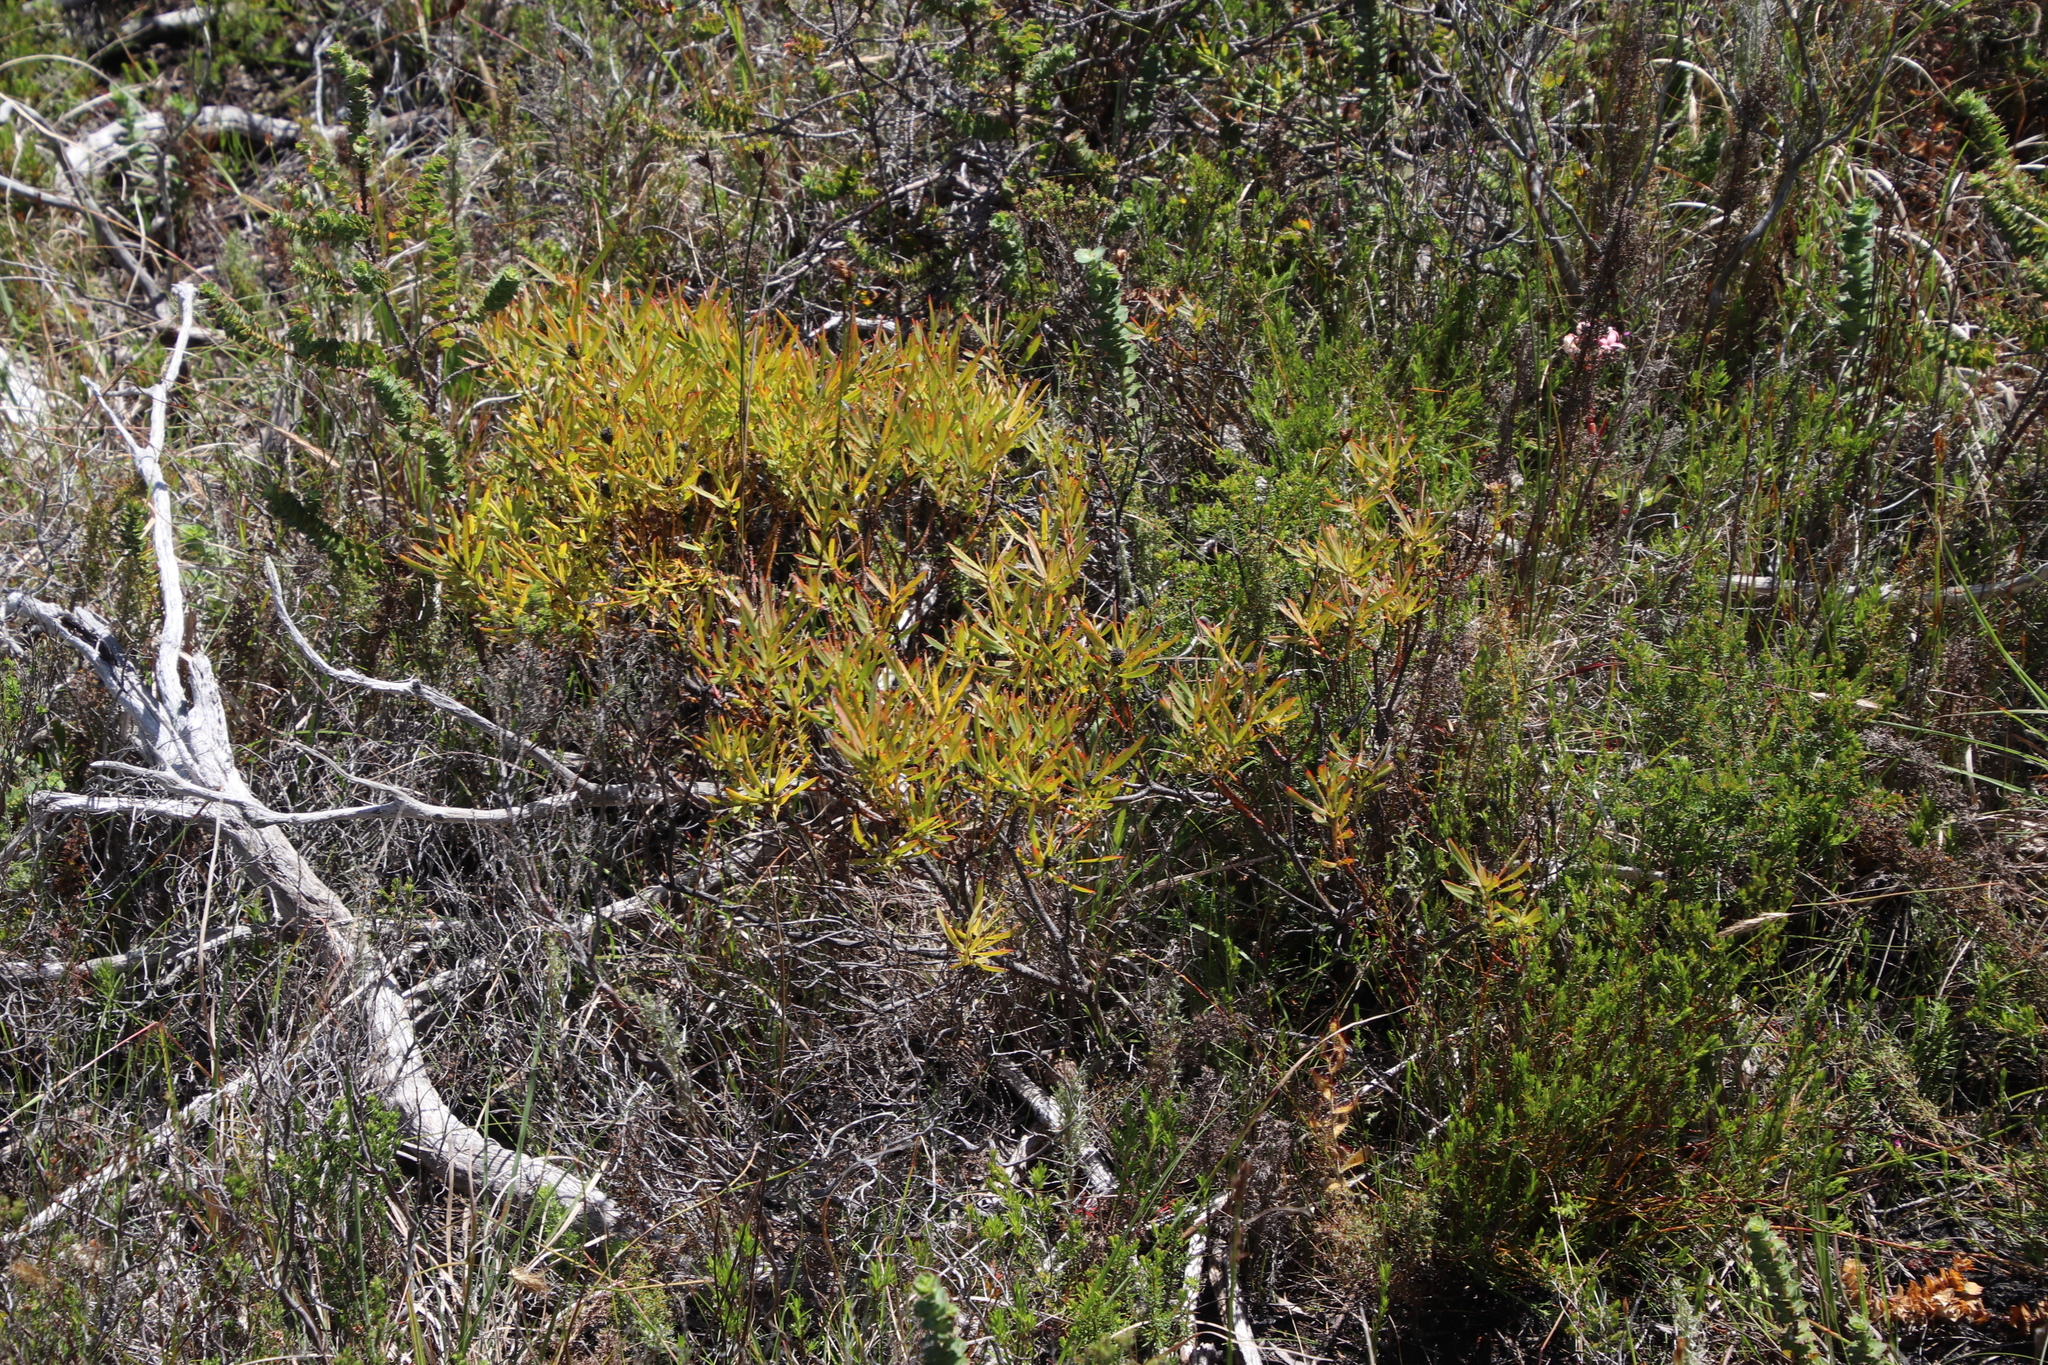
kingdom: Plantae
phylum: Tracheophyta
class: Magnoliopsida
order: Proteales
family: Proteaceae
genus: Leucadendron
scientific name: Leucadendron salignum
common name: Common sunshine conebush
